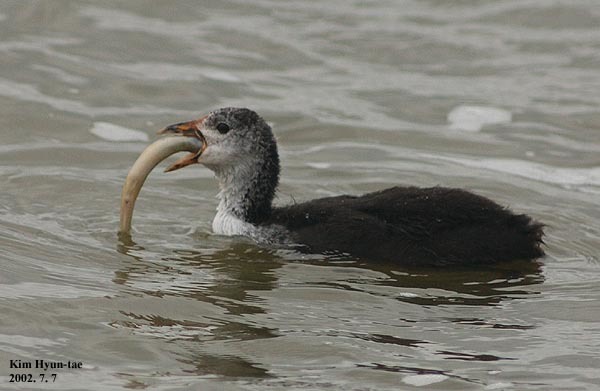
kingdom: Animalia
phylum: Chordata
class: Aves
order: Gruiformes
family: Rallidae
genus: Fulica
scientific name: Fulica atra
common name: Eurasian coot
